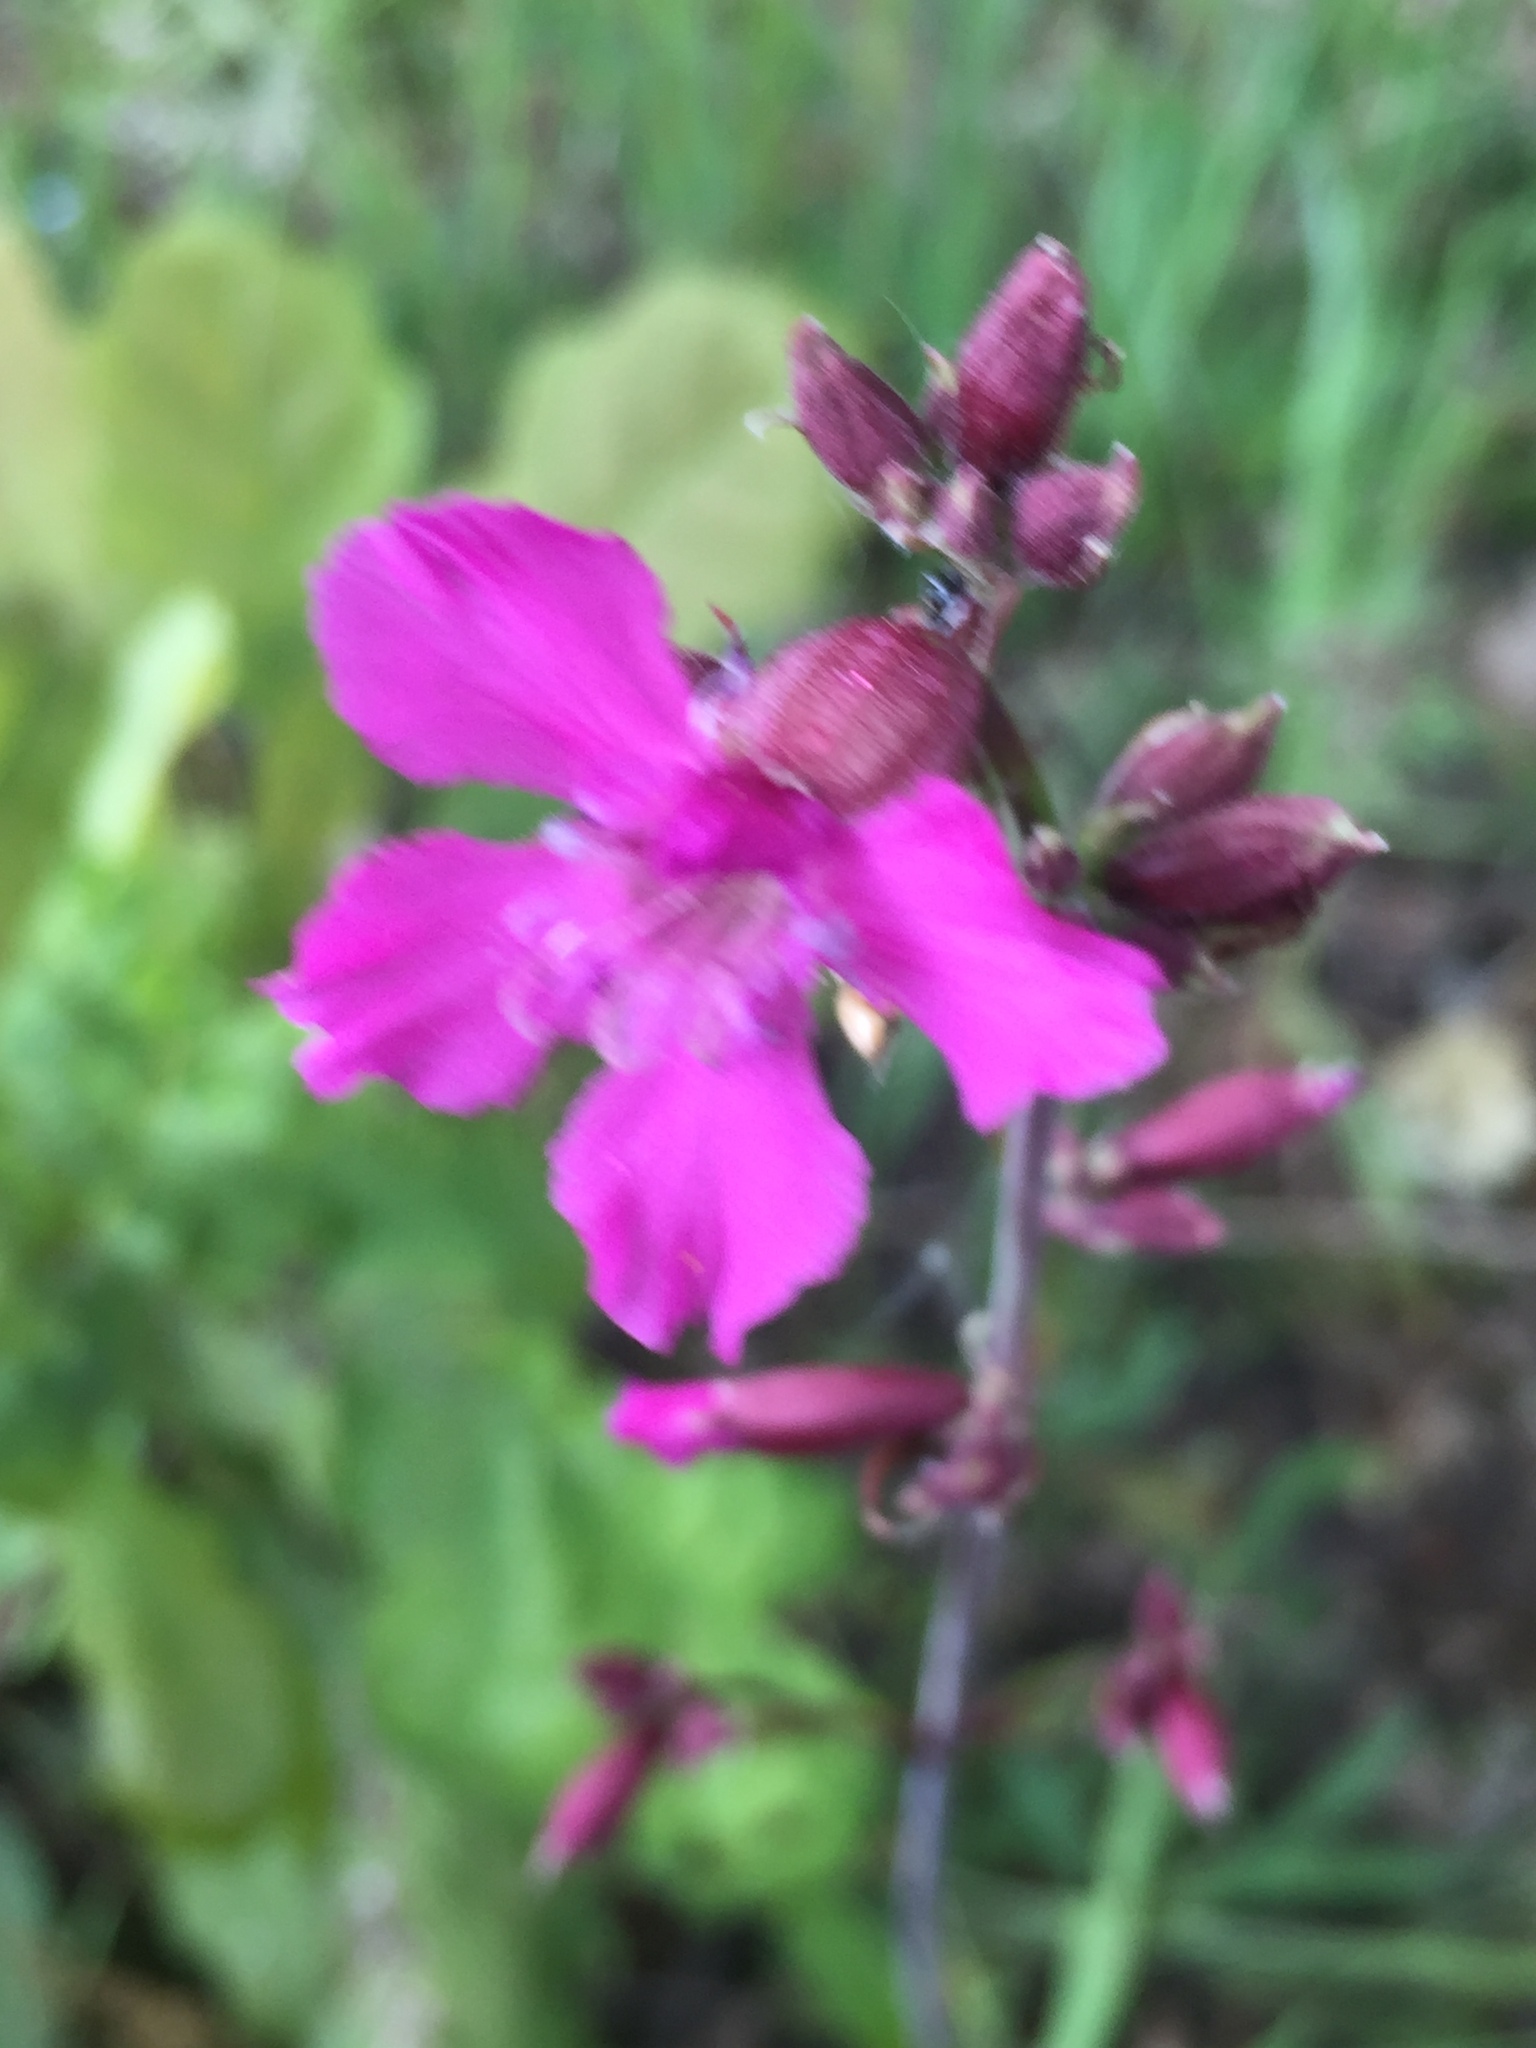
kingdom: Plantae
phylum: Tracheophyta
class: Magnoliopsida
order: Caryophyllales
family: Caryophyllaceae
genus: Viscaria
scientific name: Viscaria vulgaris
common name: Clammy campion
